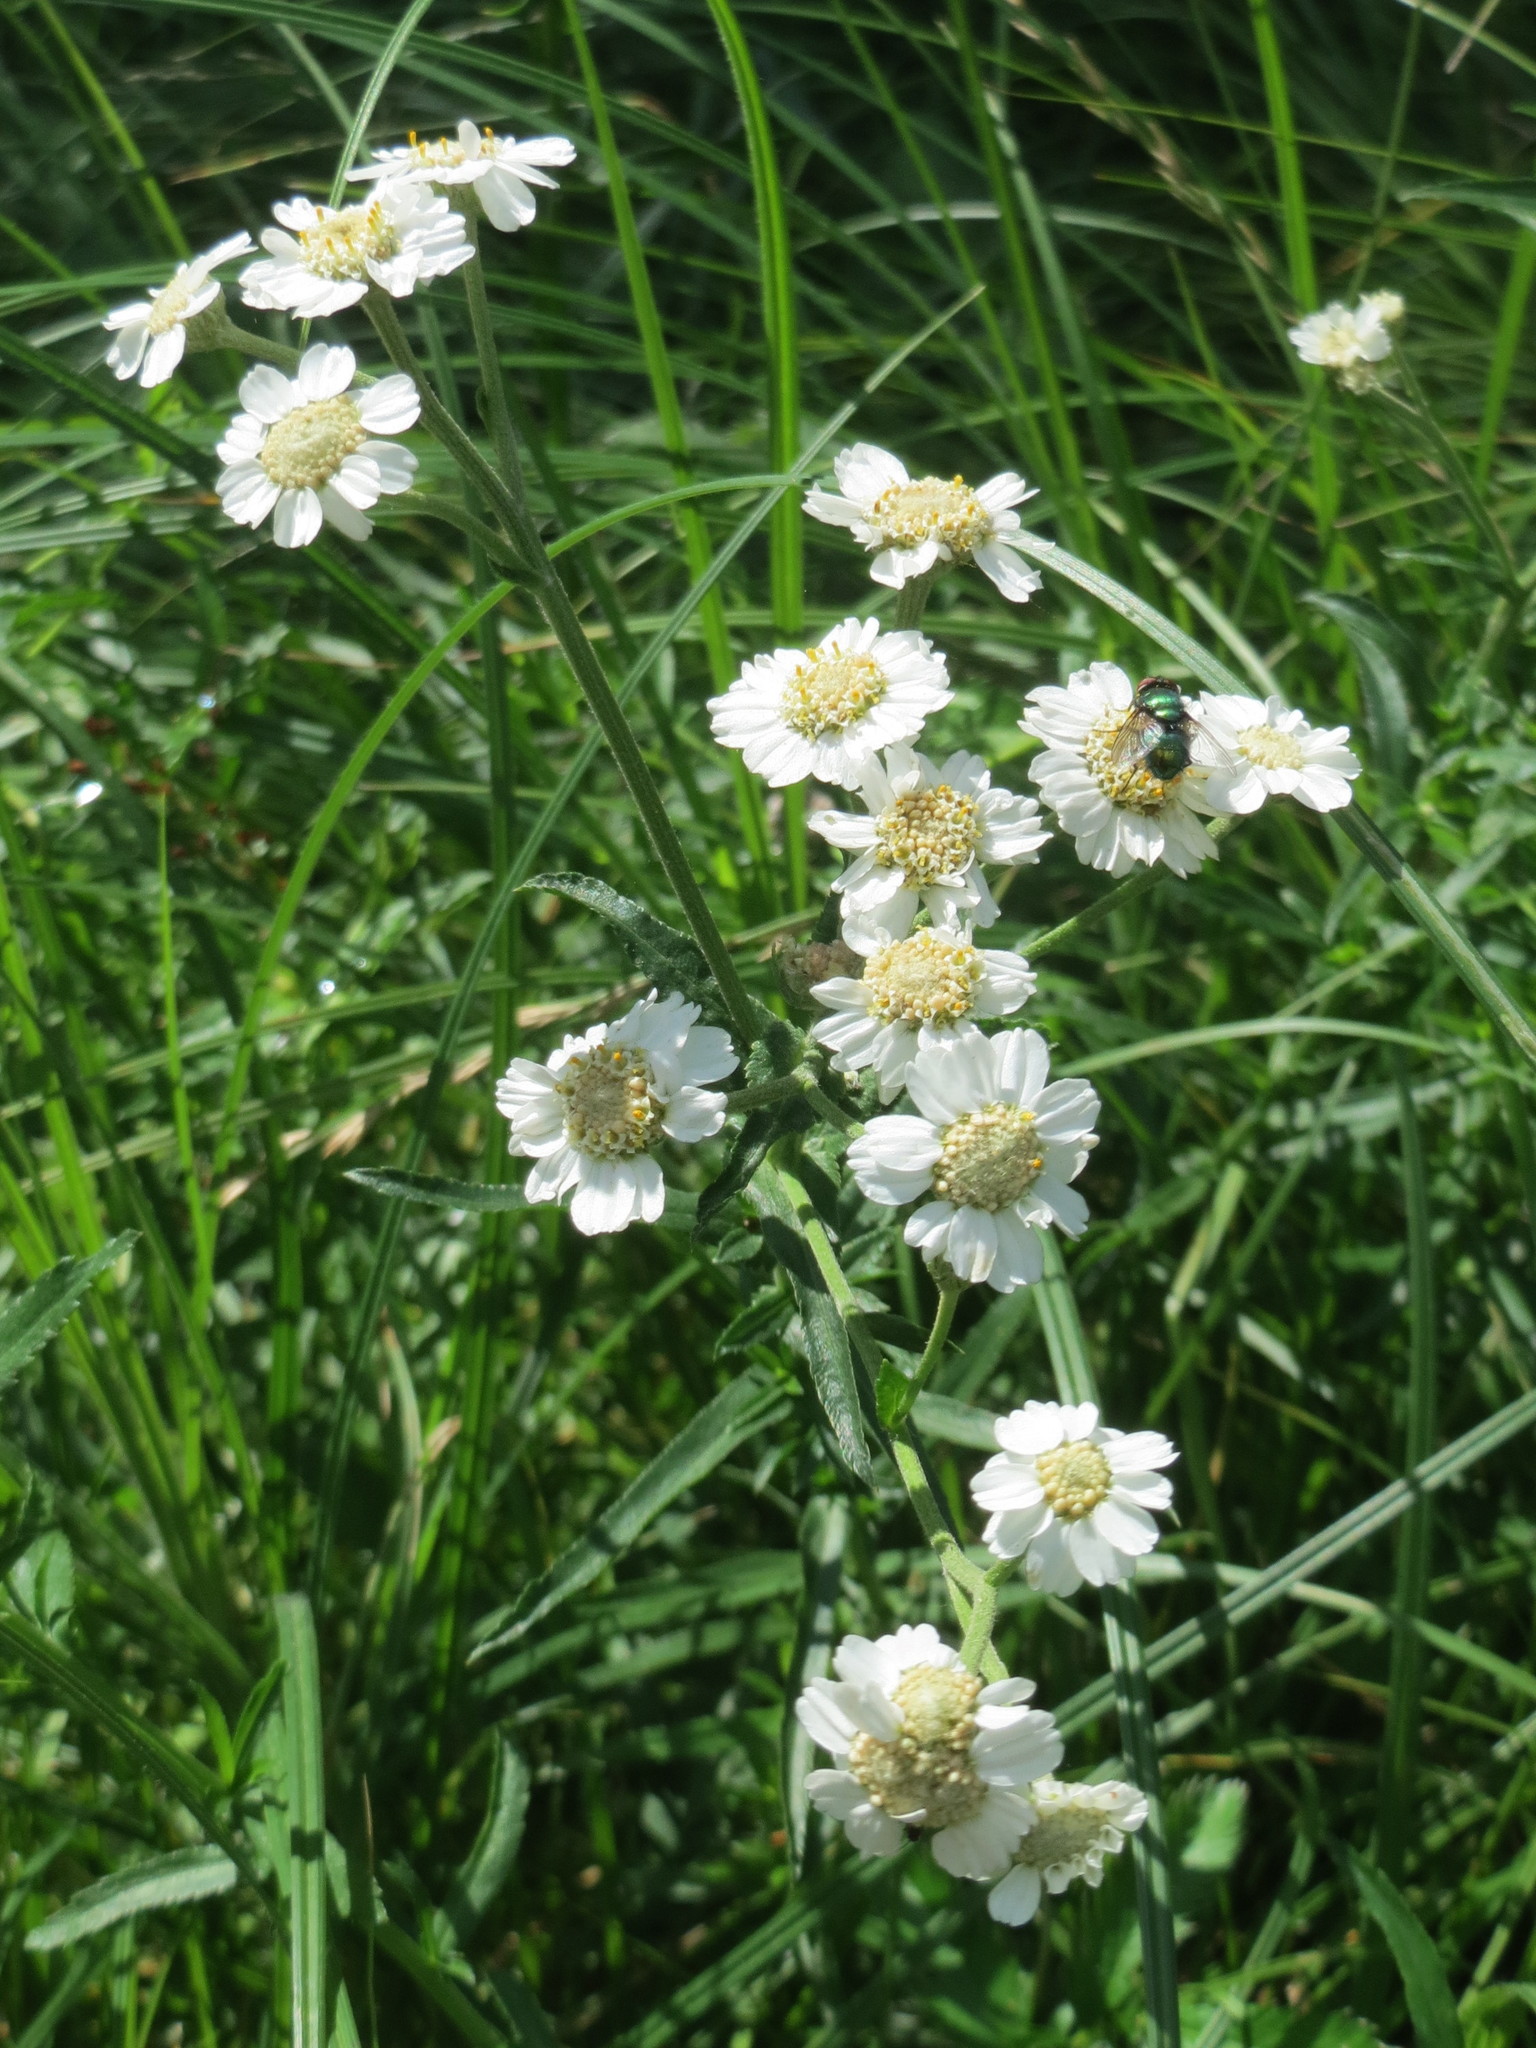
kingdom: Plantae
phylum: Tracheophyta
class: Magnoliopsida
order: Asterales
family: Asteraceae
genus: Achillea
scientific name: Achillea ptarmica
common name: Sneezeweed
